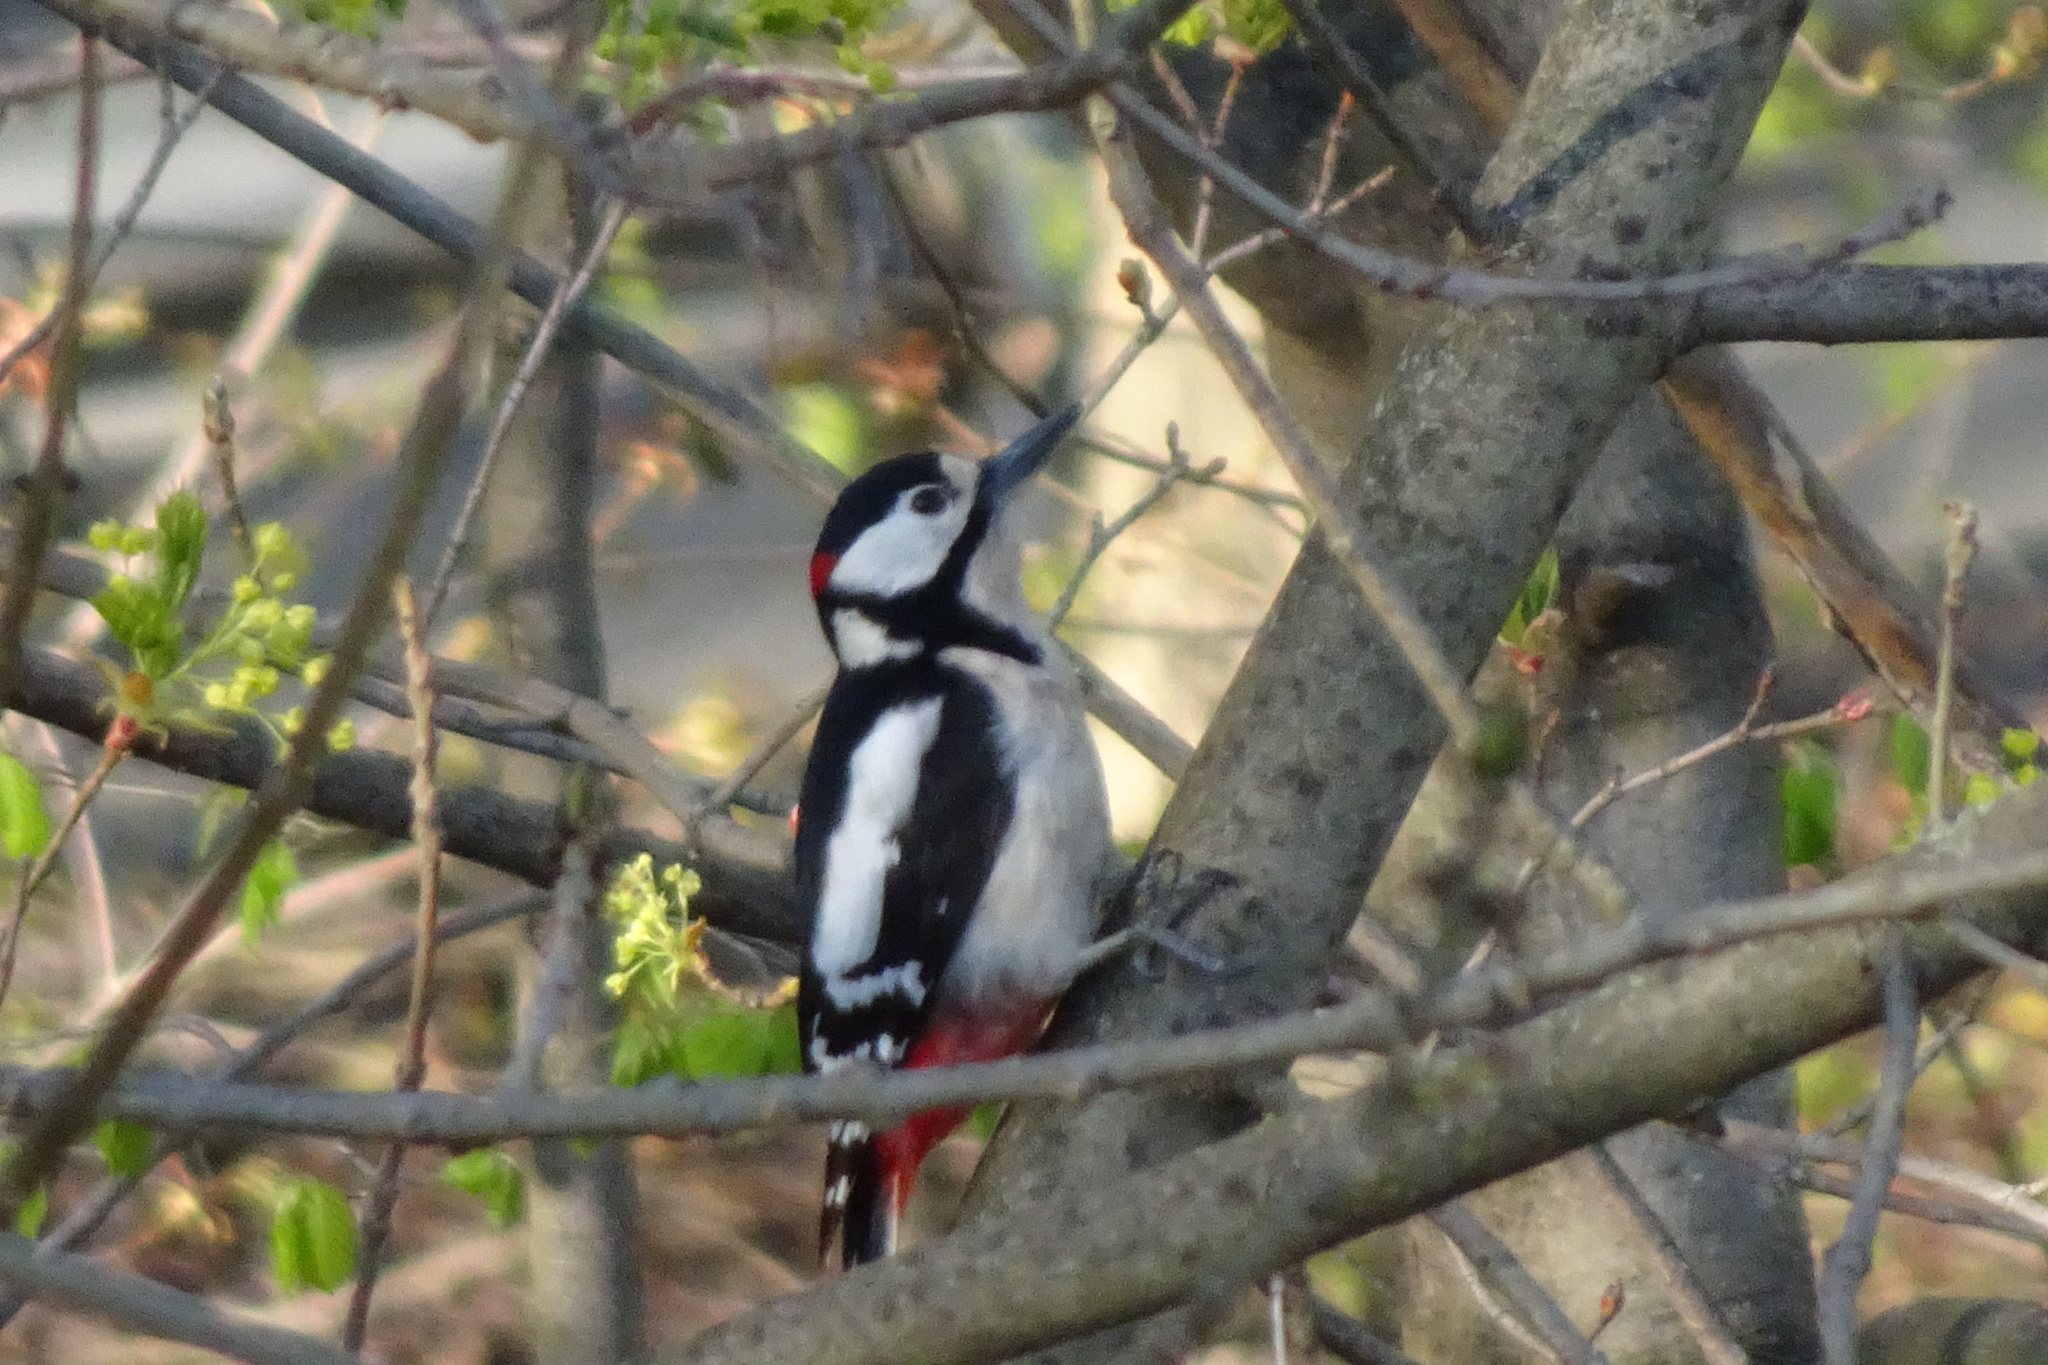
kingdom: Animalia
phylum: Chordata
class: Aves
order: Piciformes
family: Picidae
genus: Dendrocopos
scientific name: Dendrocopos major
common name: Great spotted woodpecker
